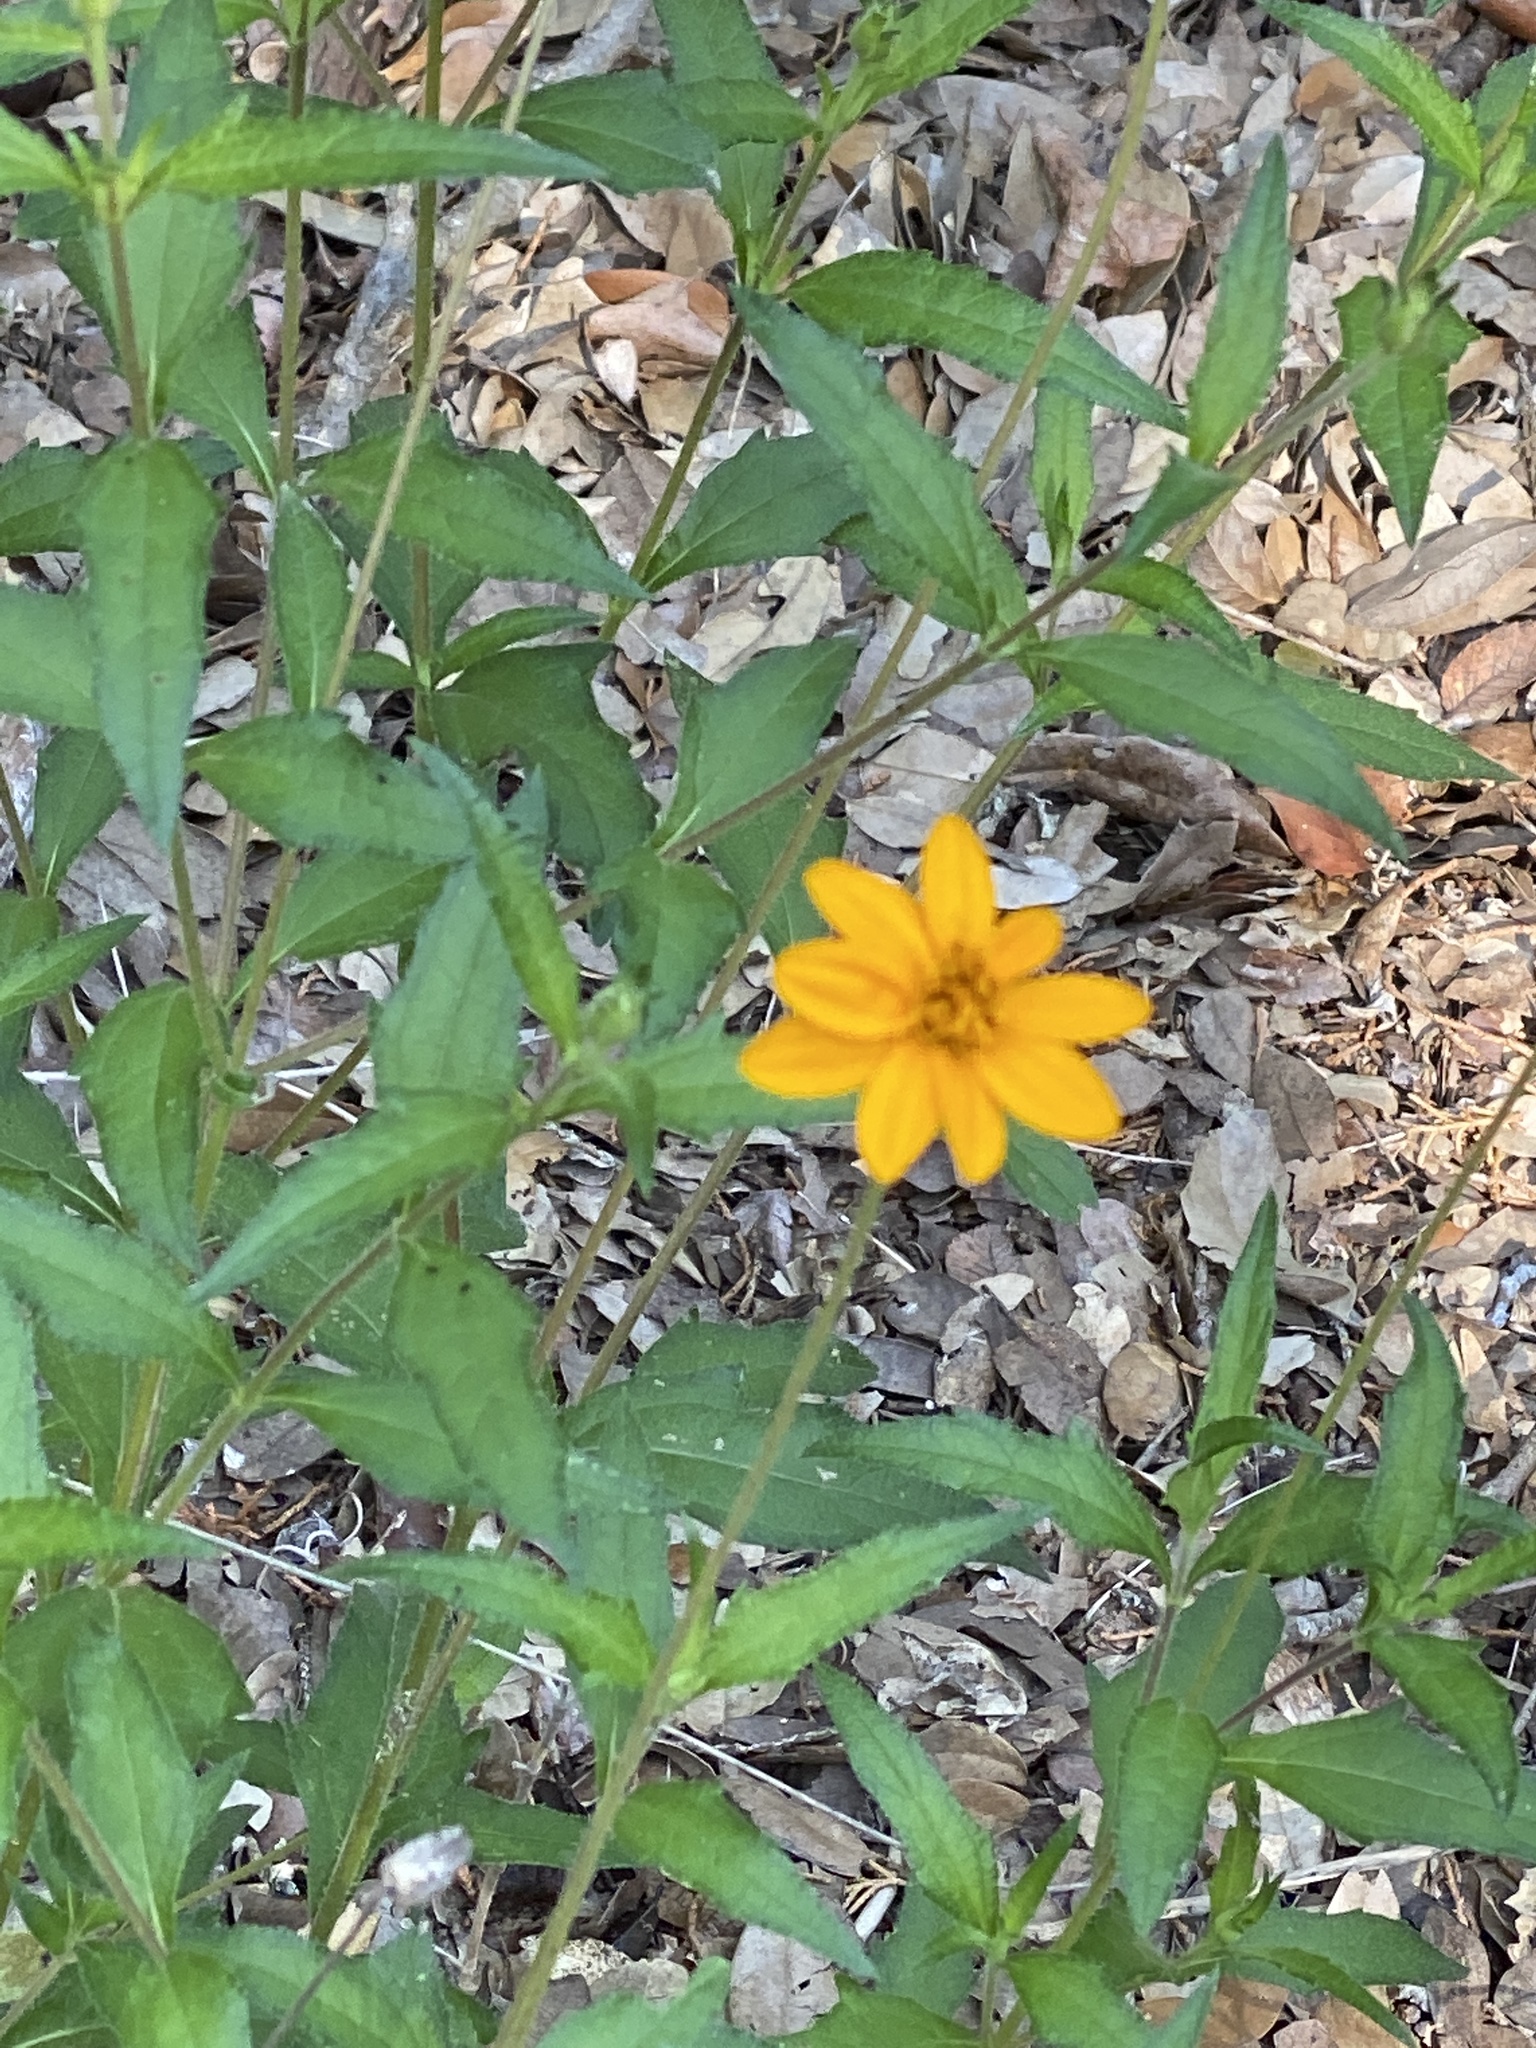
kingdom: Plantae
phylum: Tracheophyta
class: Magnoliopsida
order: Asterales
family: Asteraceae
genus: Wedelia
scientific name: Wedelia acapulcensis
